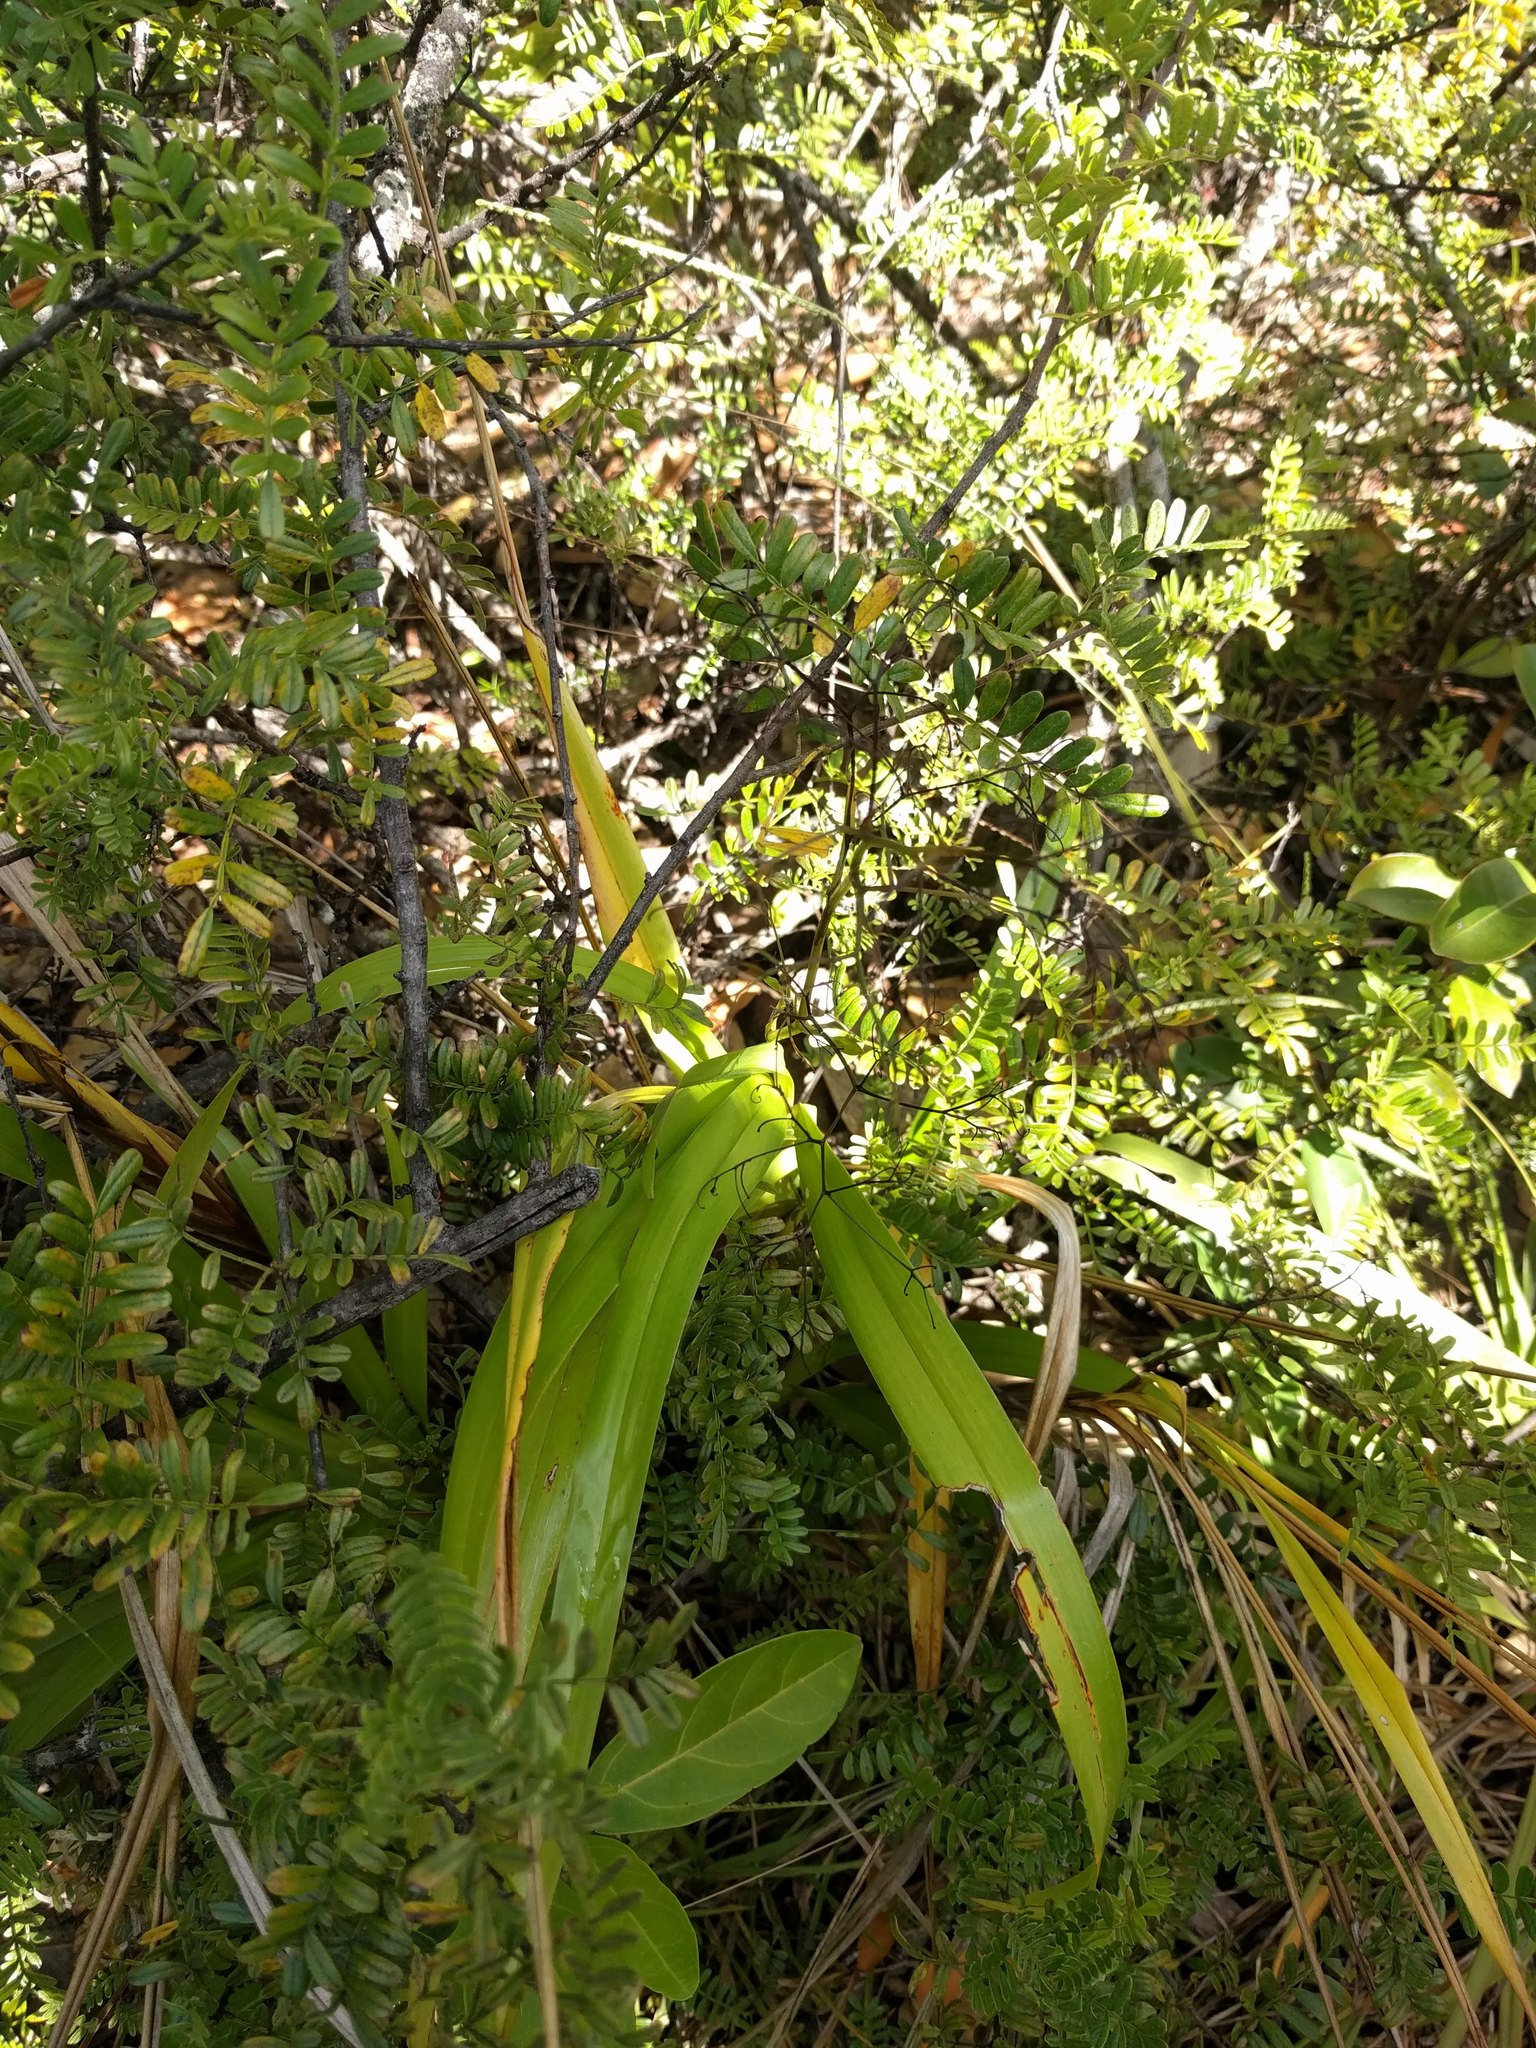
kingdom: Plantae
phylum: Tracheophyta
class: Liliopsida
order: Asparagales
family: Asphodelaceae
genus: Dianella
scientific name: Dianella sandwicensis
